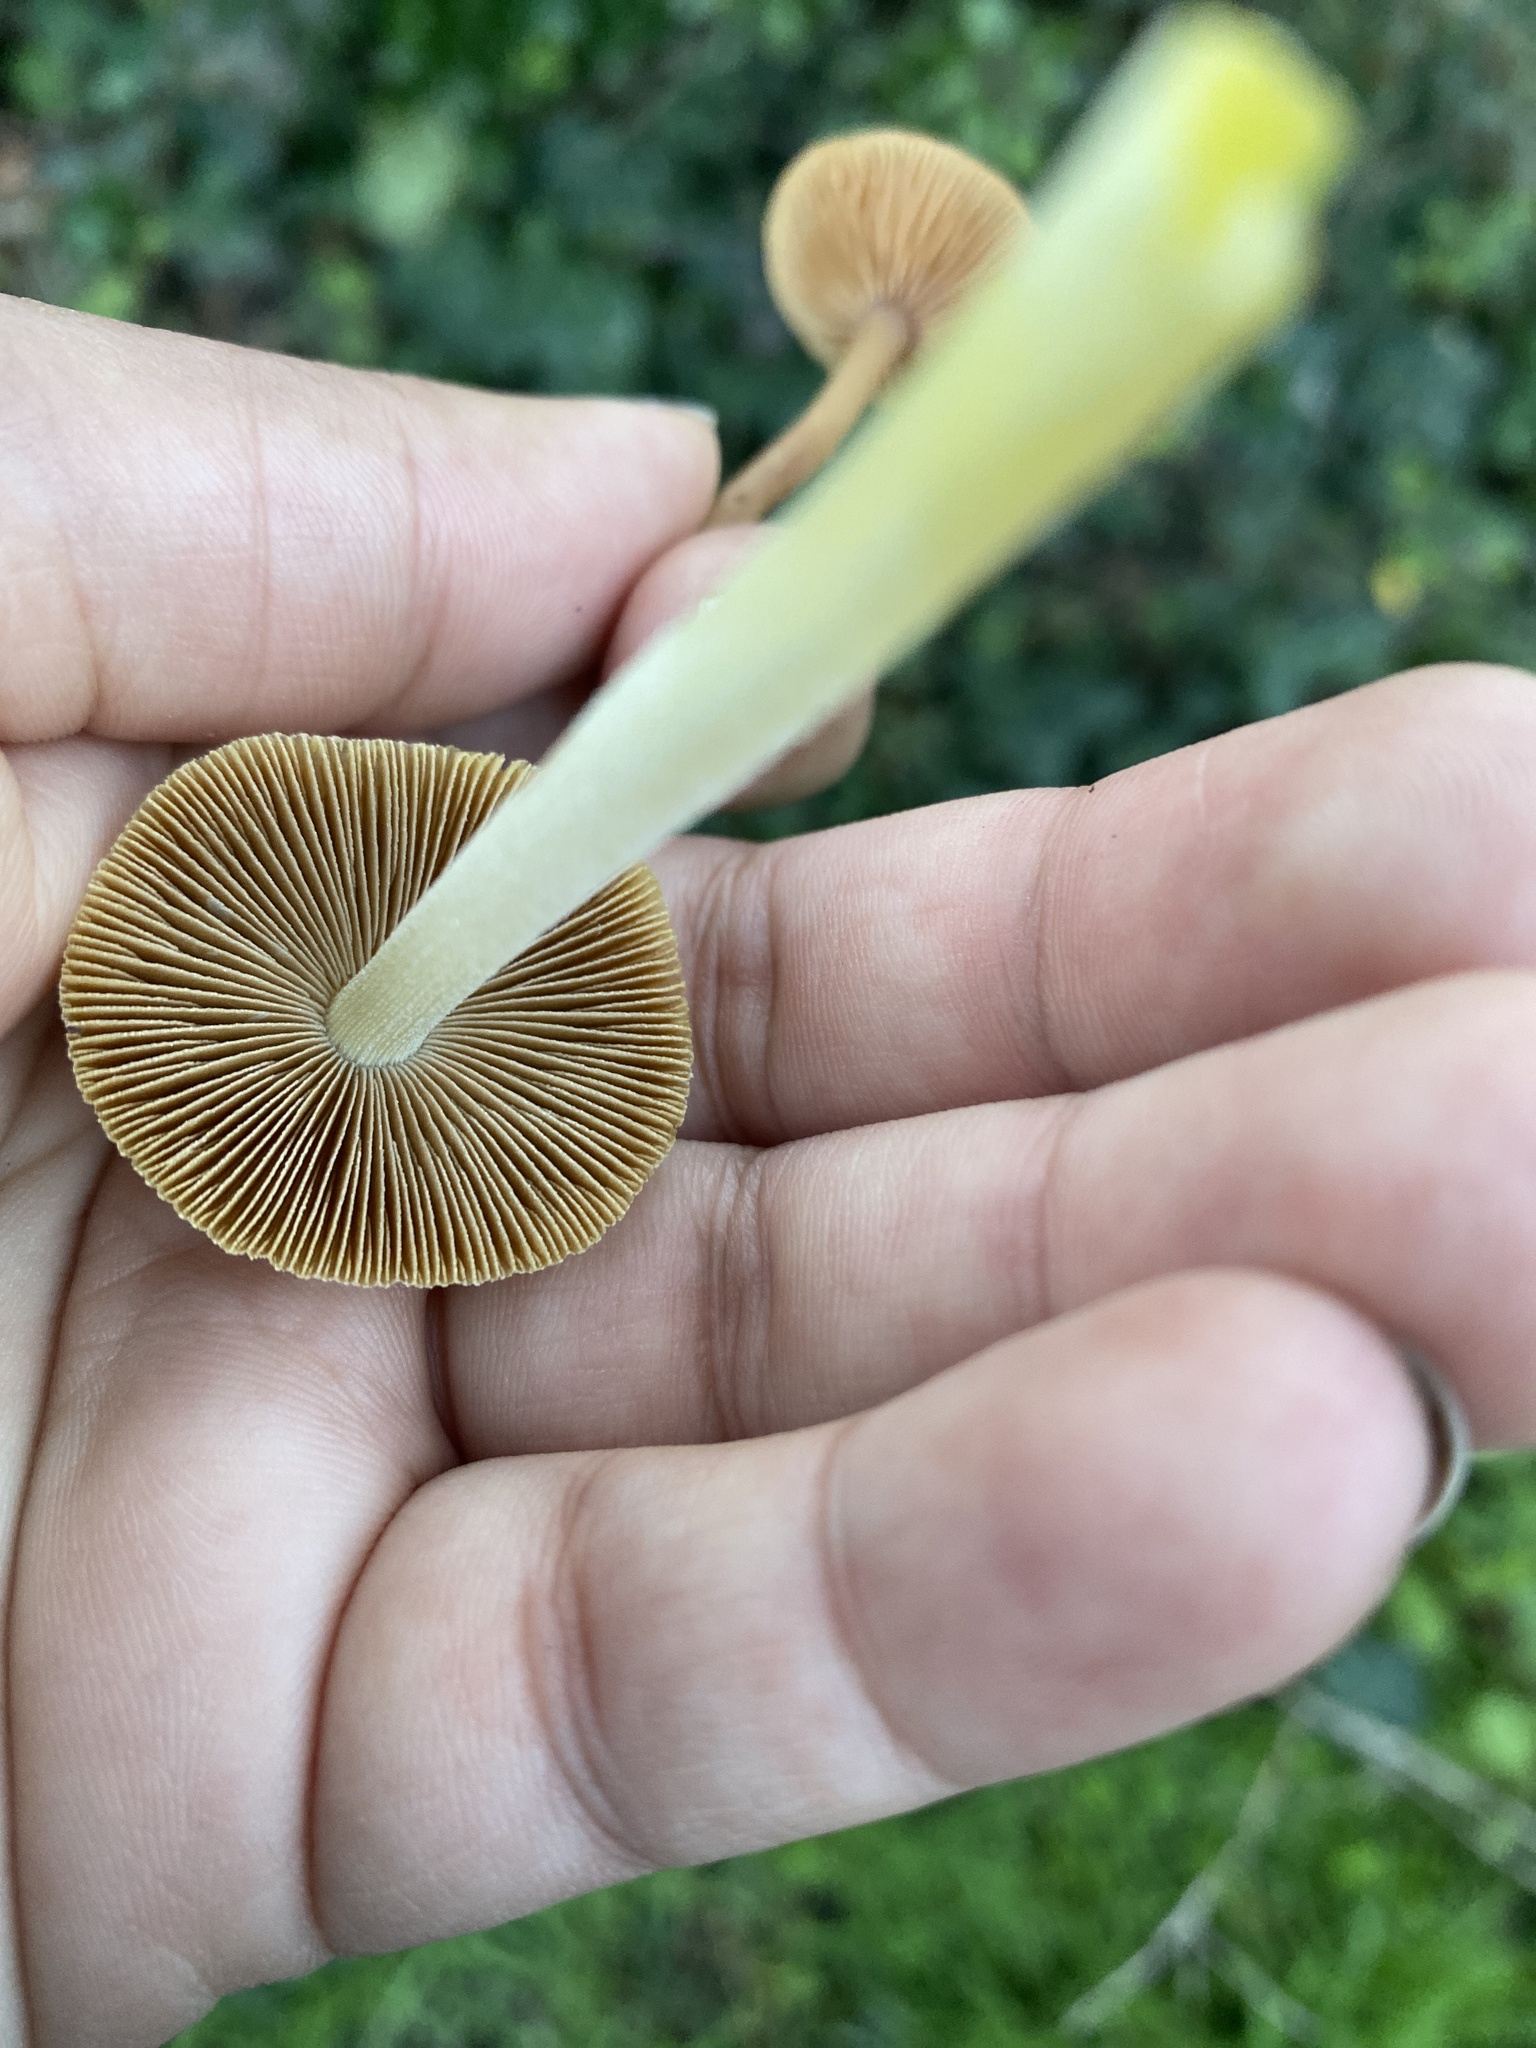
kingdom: Fungi
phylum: Basidiomycota
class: Agaricomycetes
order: Agaricales
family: Bolbitiaceae
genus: Bolbitius
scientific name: Bolbitius titubans
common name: Yellow fieldcap
